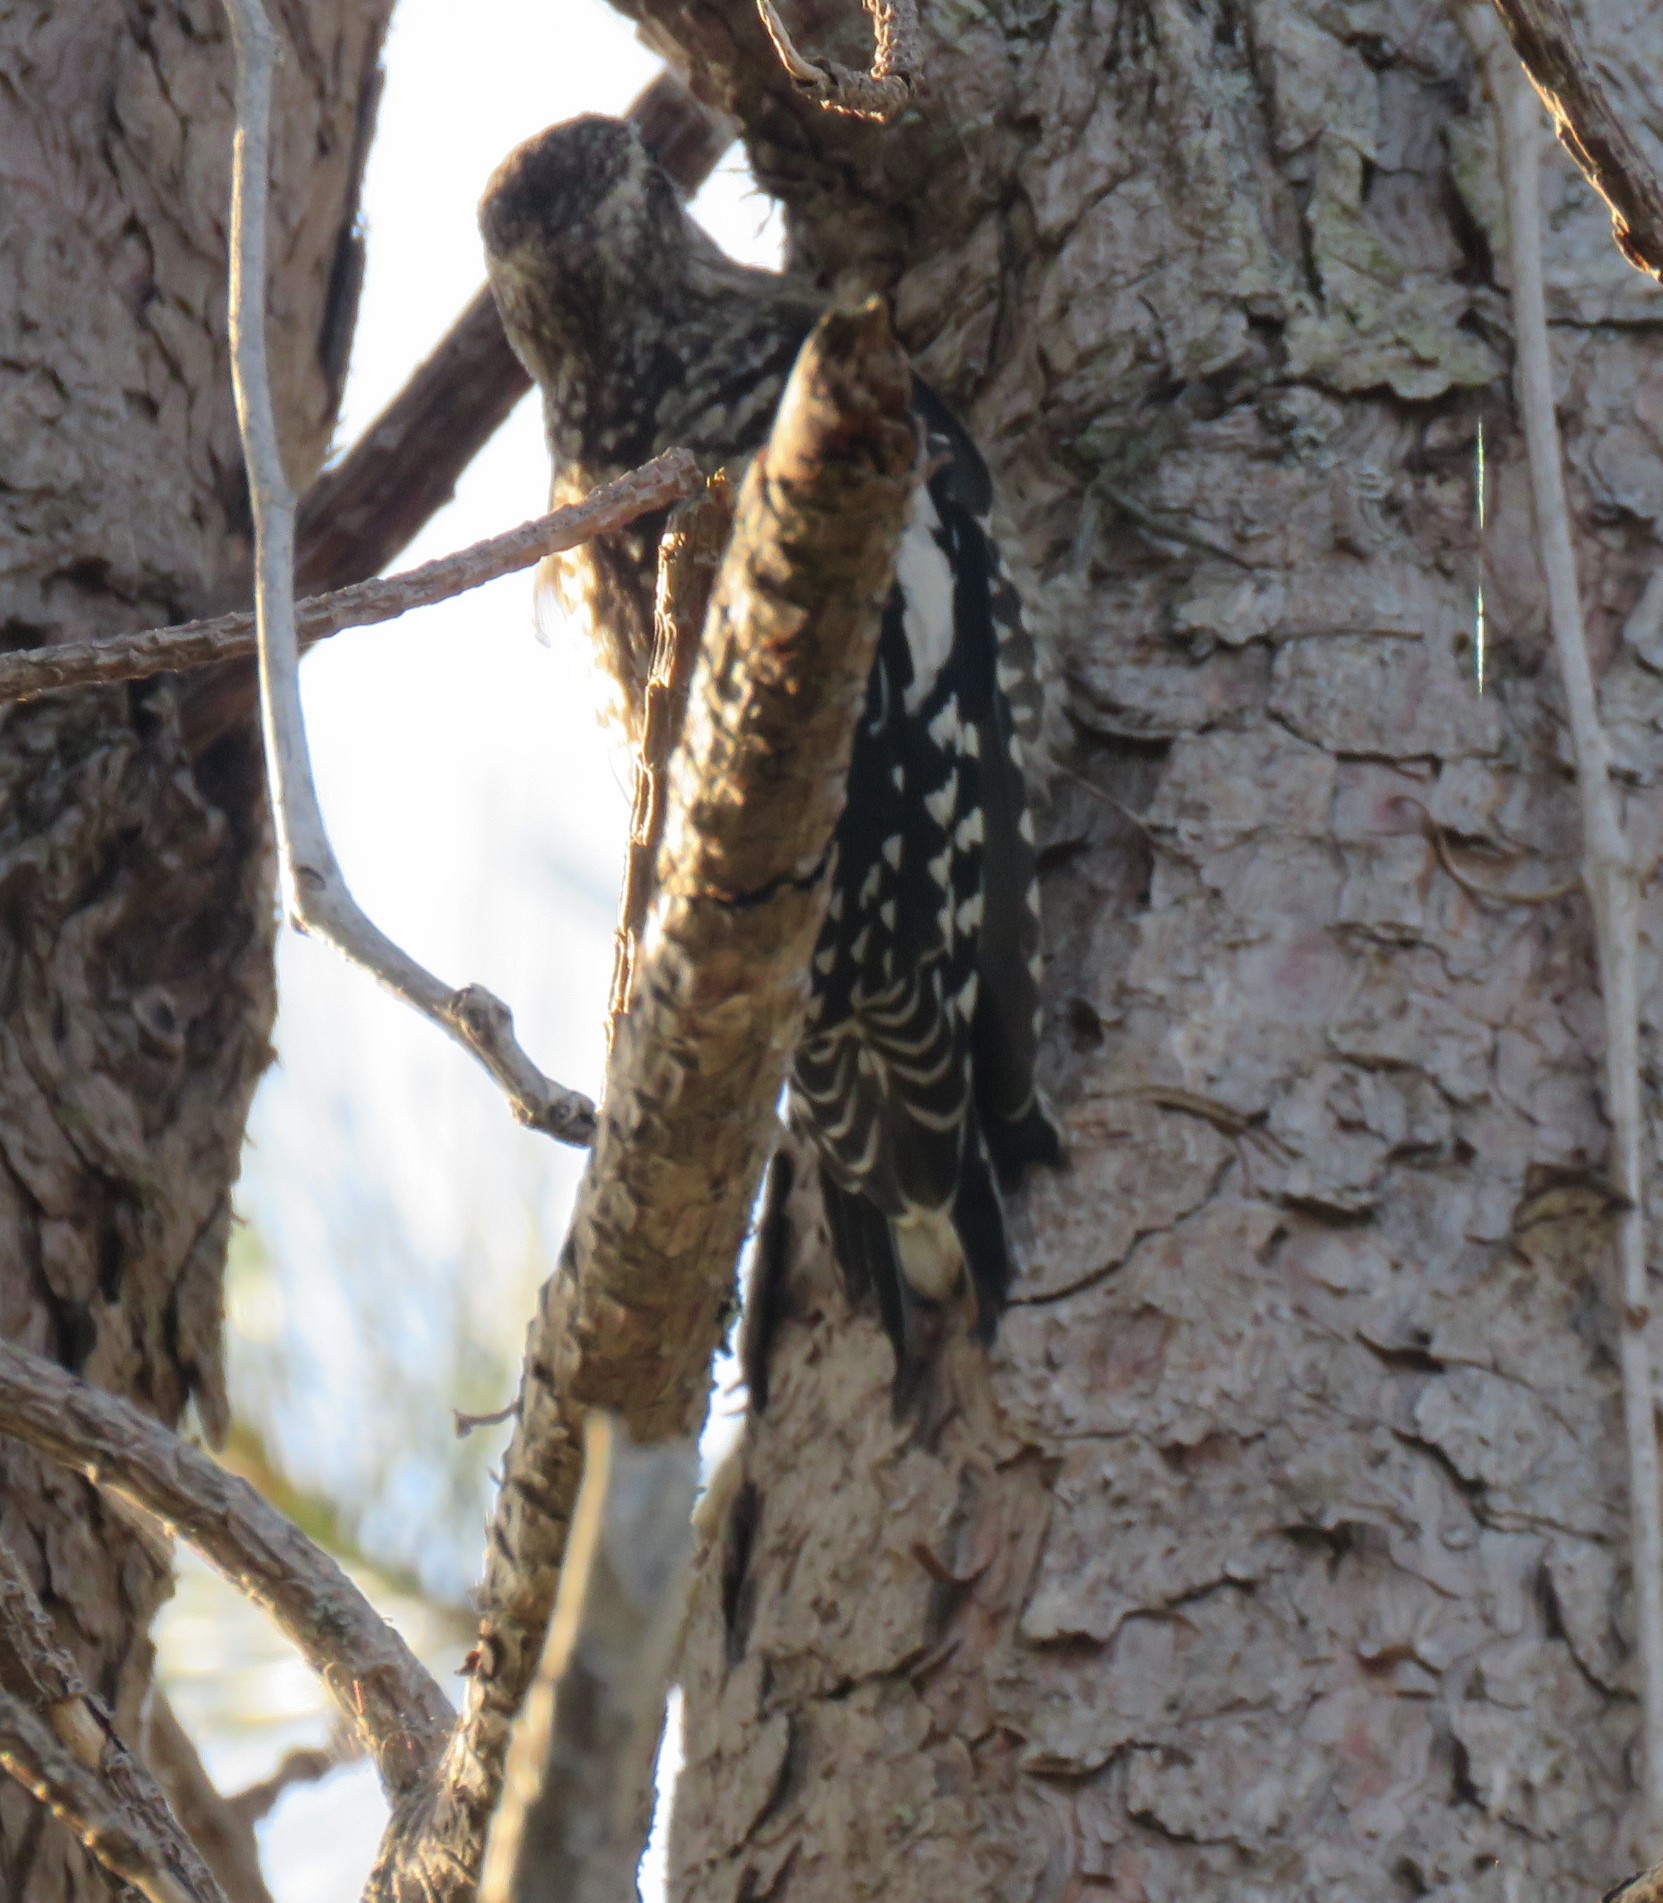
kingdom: Animalia
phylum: Chordata
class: Aves
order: Piciformes
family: Picidae
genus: Sphyrapicus
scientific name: Sphyrapicus varius
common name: Yellow-bellied sapsucker
